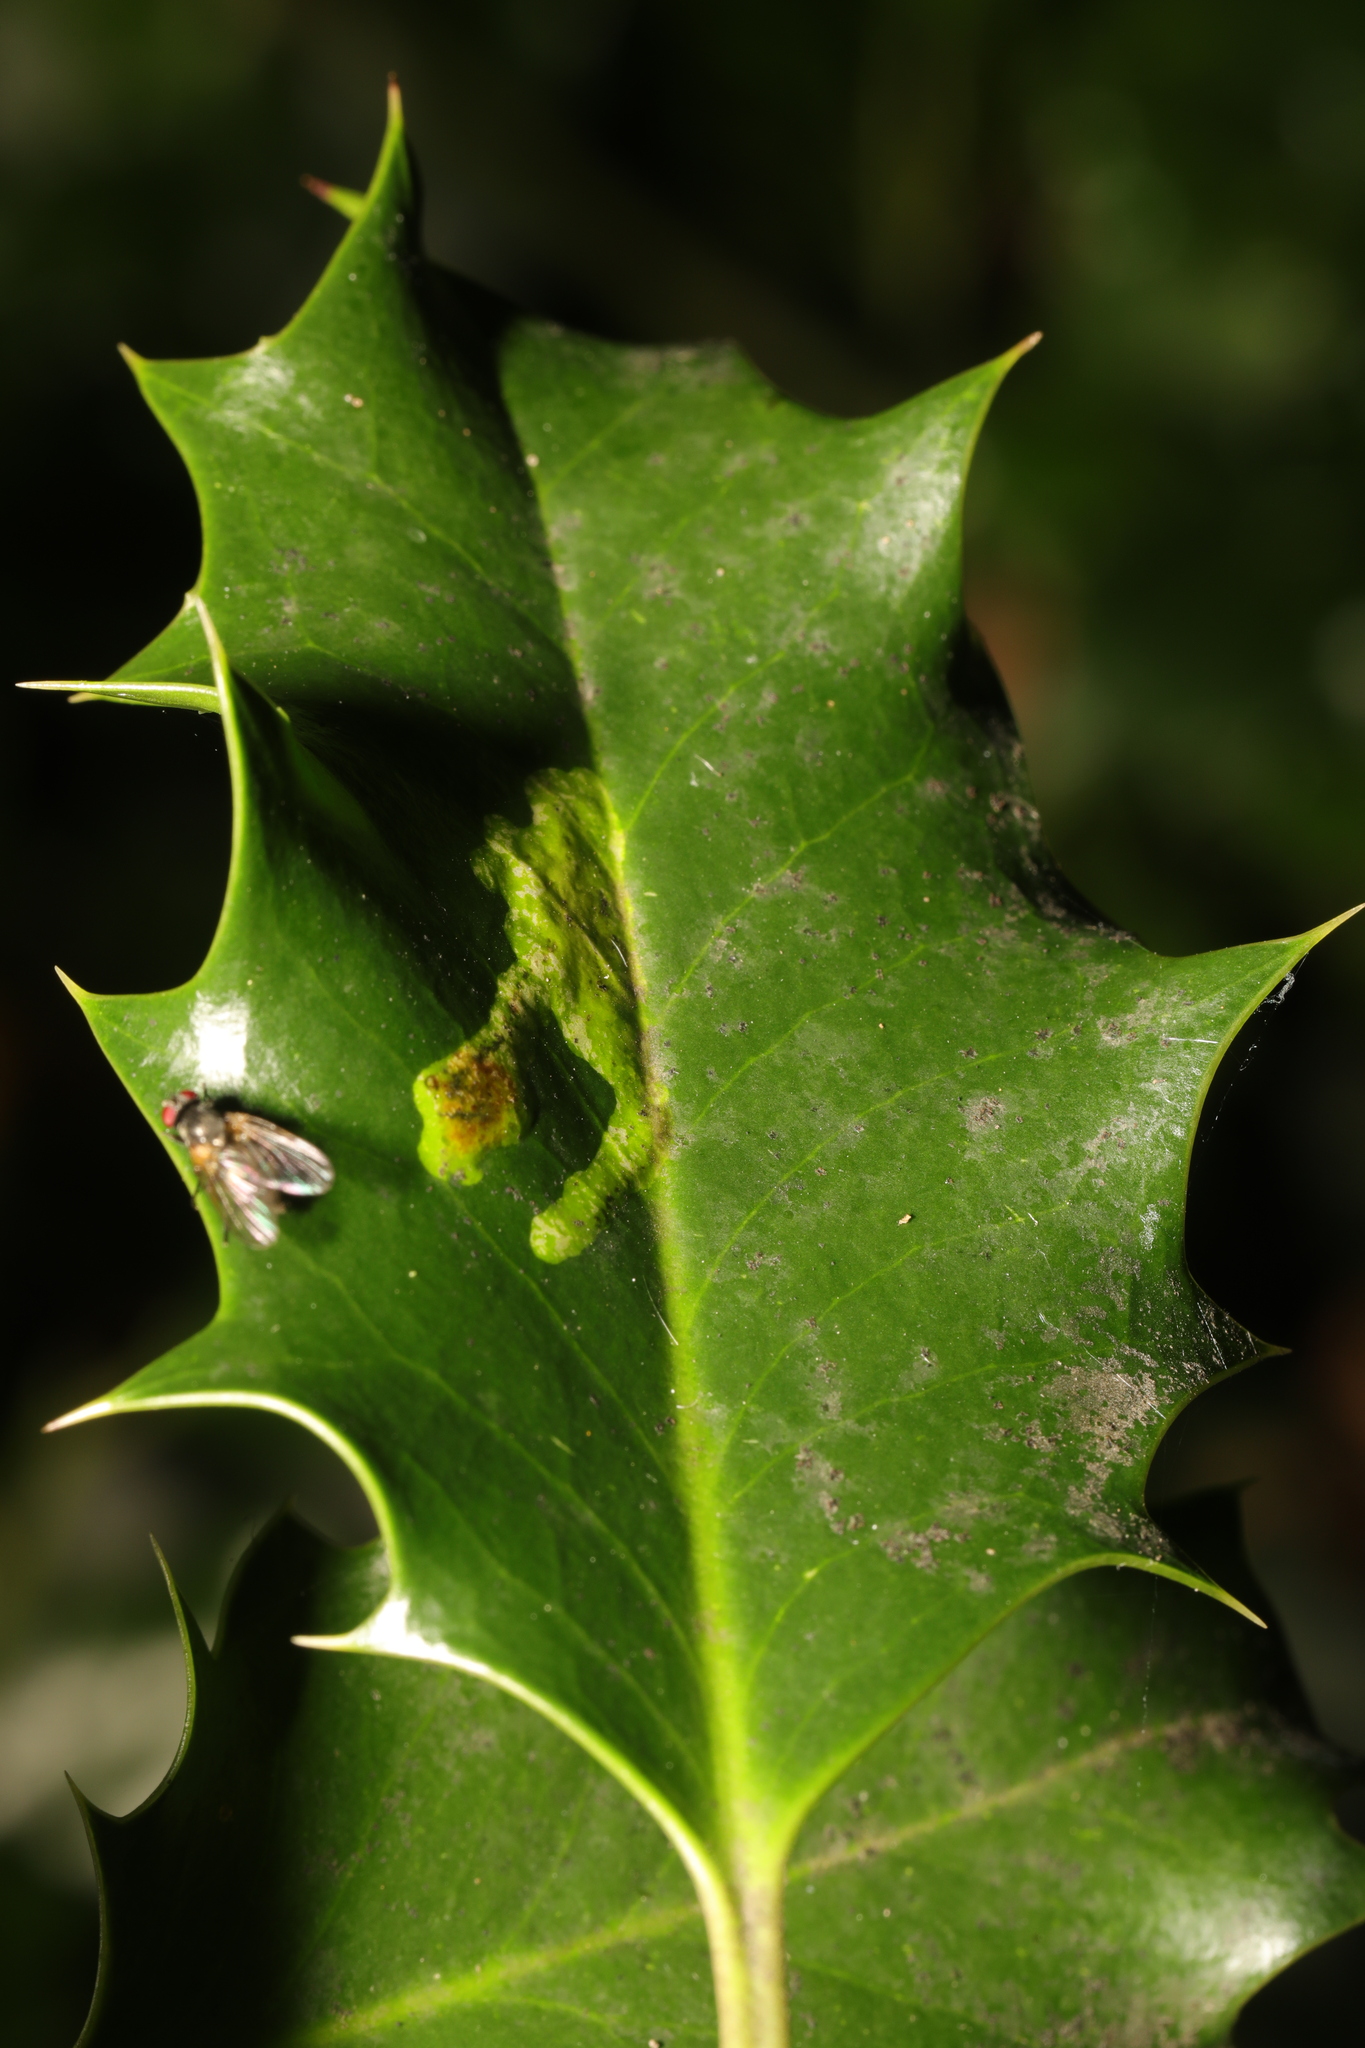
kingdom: Animalia
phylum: Arthropoda
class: Insecta
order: Diptera
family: Agromyzidae
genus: Phytomyza
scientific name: Phytomyza ilicis
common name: Holly leafminer
